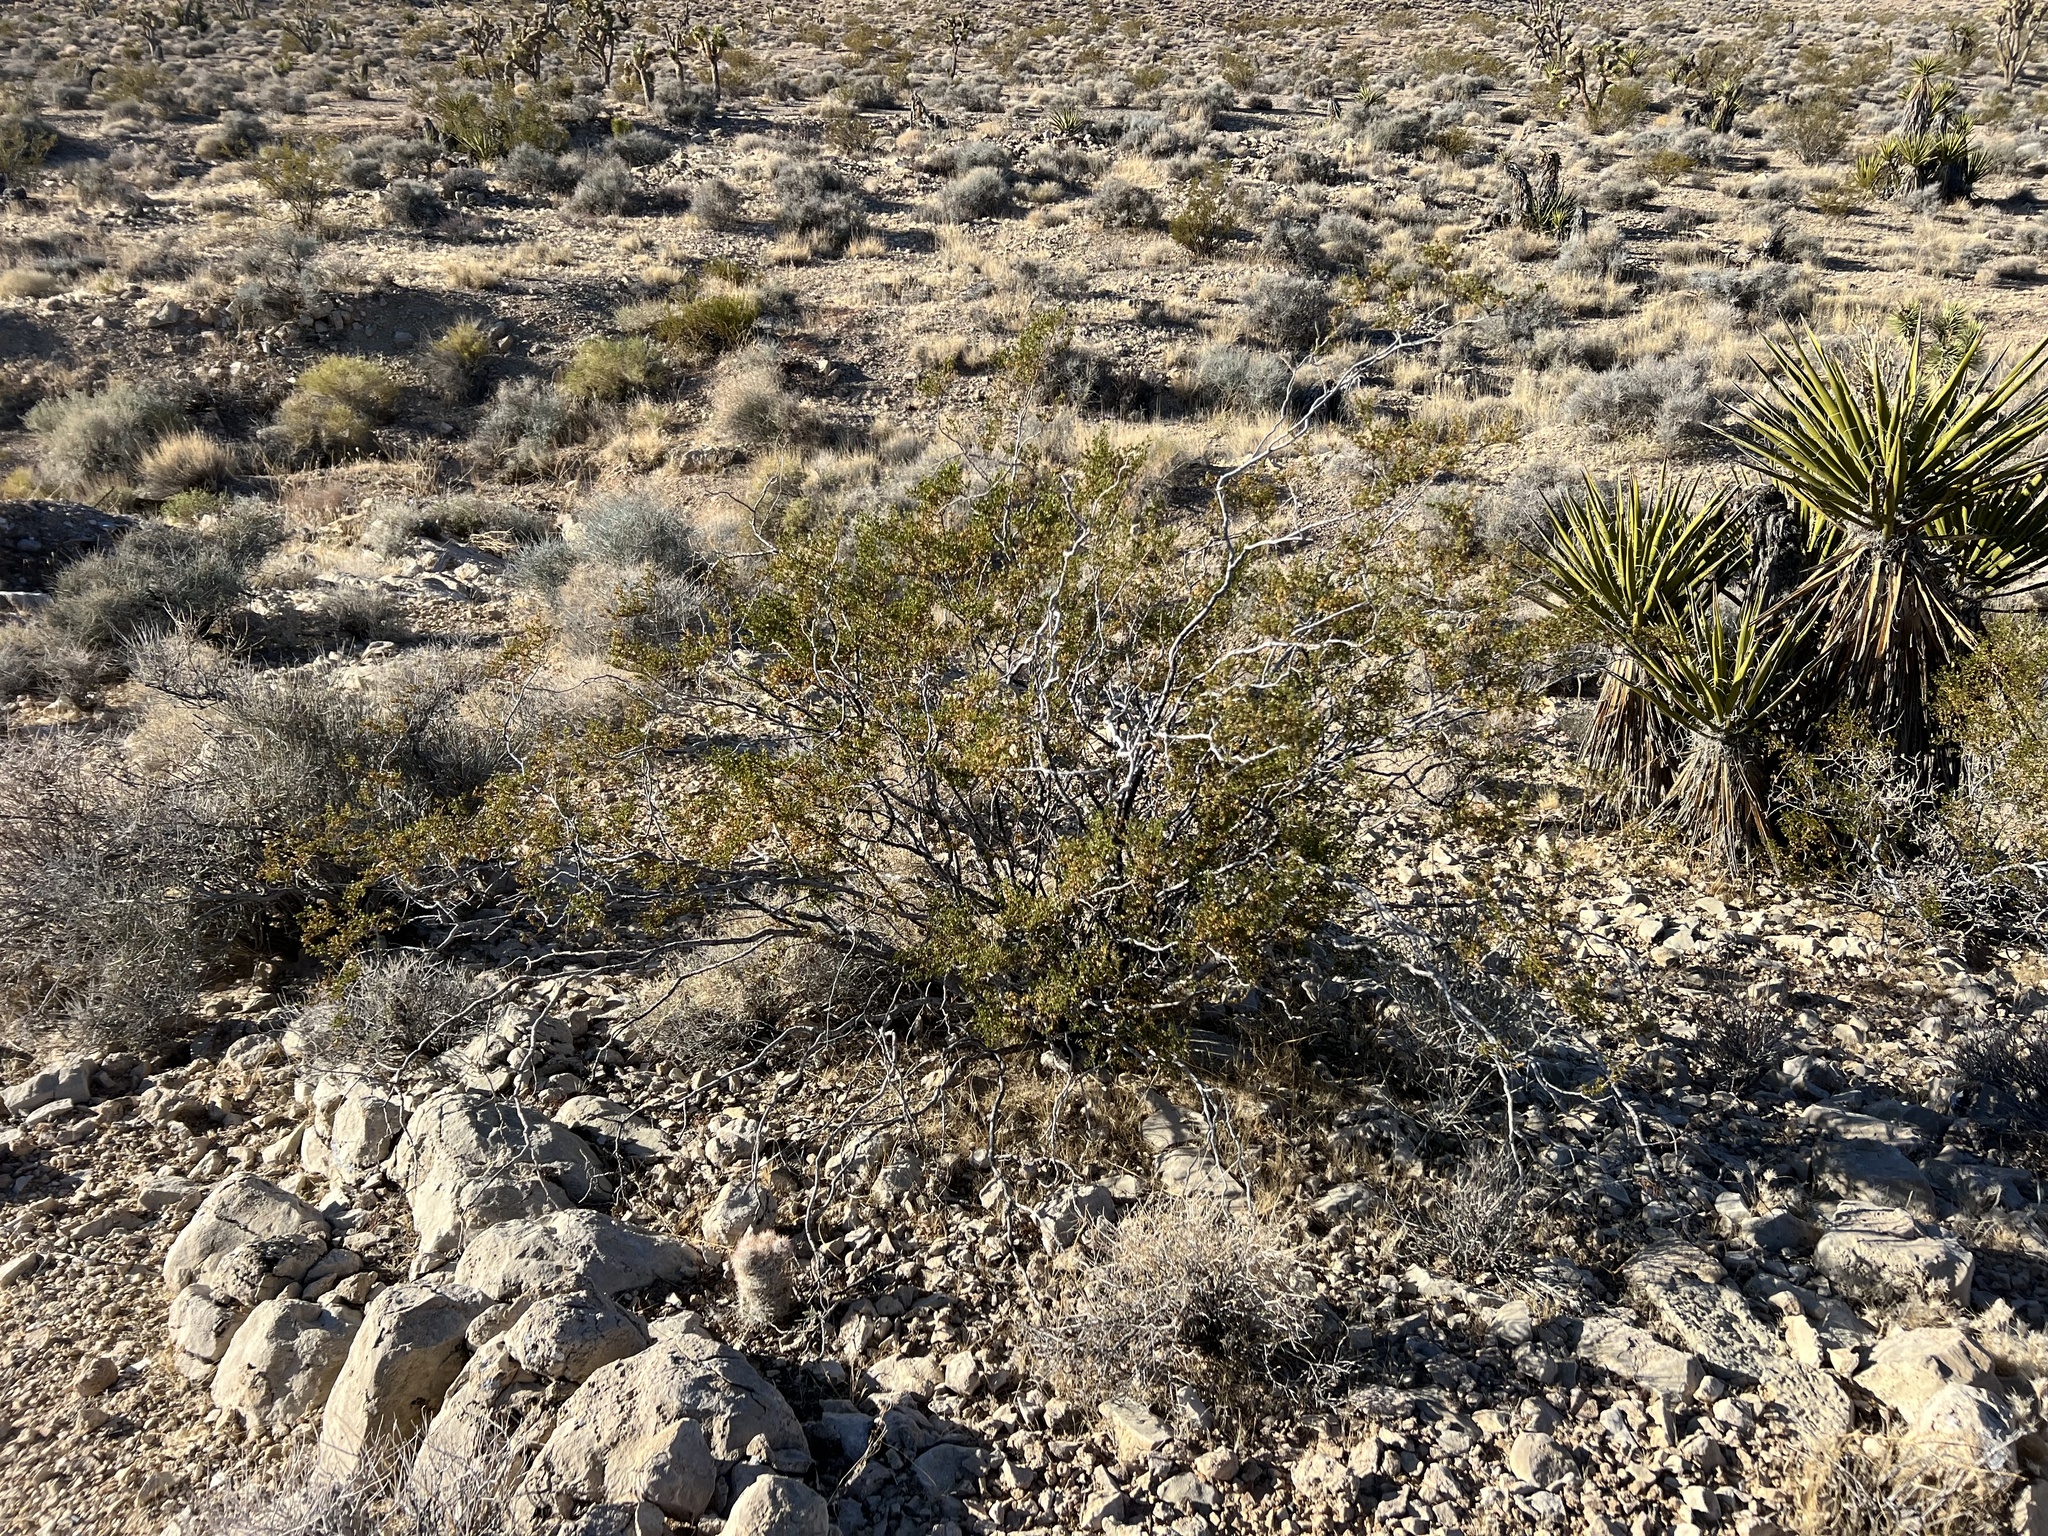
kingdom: Plantae
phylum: Tracheophyta
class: Magnoliopsida
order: Zygophyllales
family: Zygophyllaceae
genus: Larrea
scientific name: Larrea tridentata
